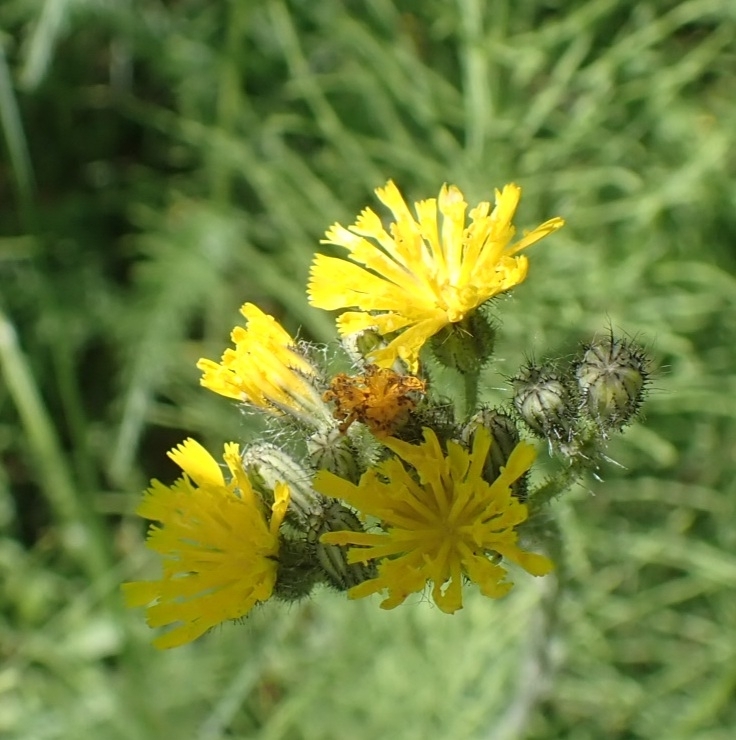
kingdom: Plantae
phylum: Tracheophyta
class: Magnoliopsida
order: Asterales
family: Asteraceae
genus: Pilosella
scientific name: Pilosella
